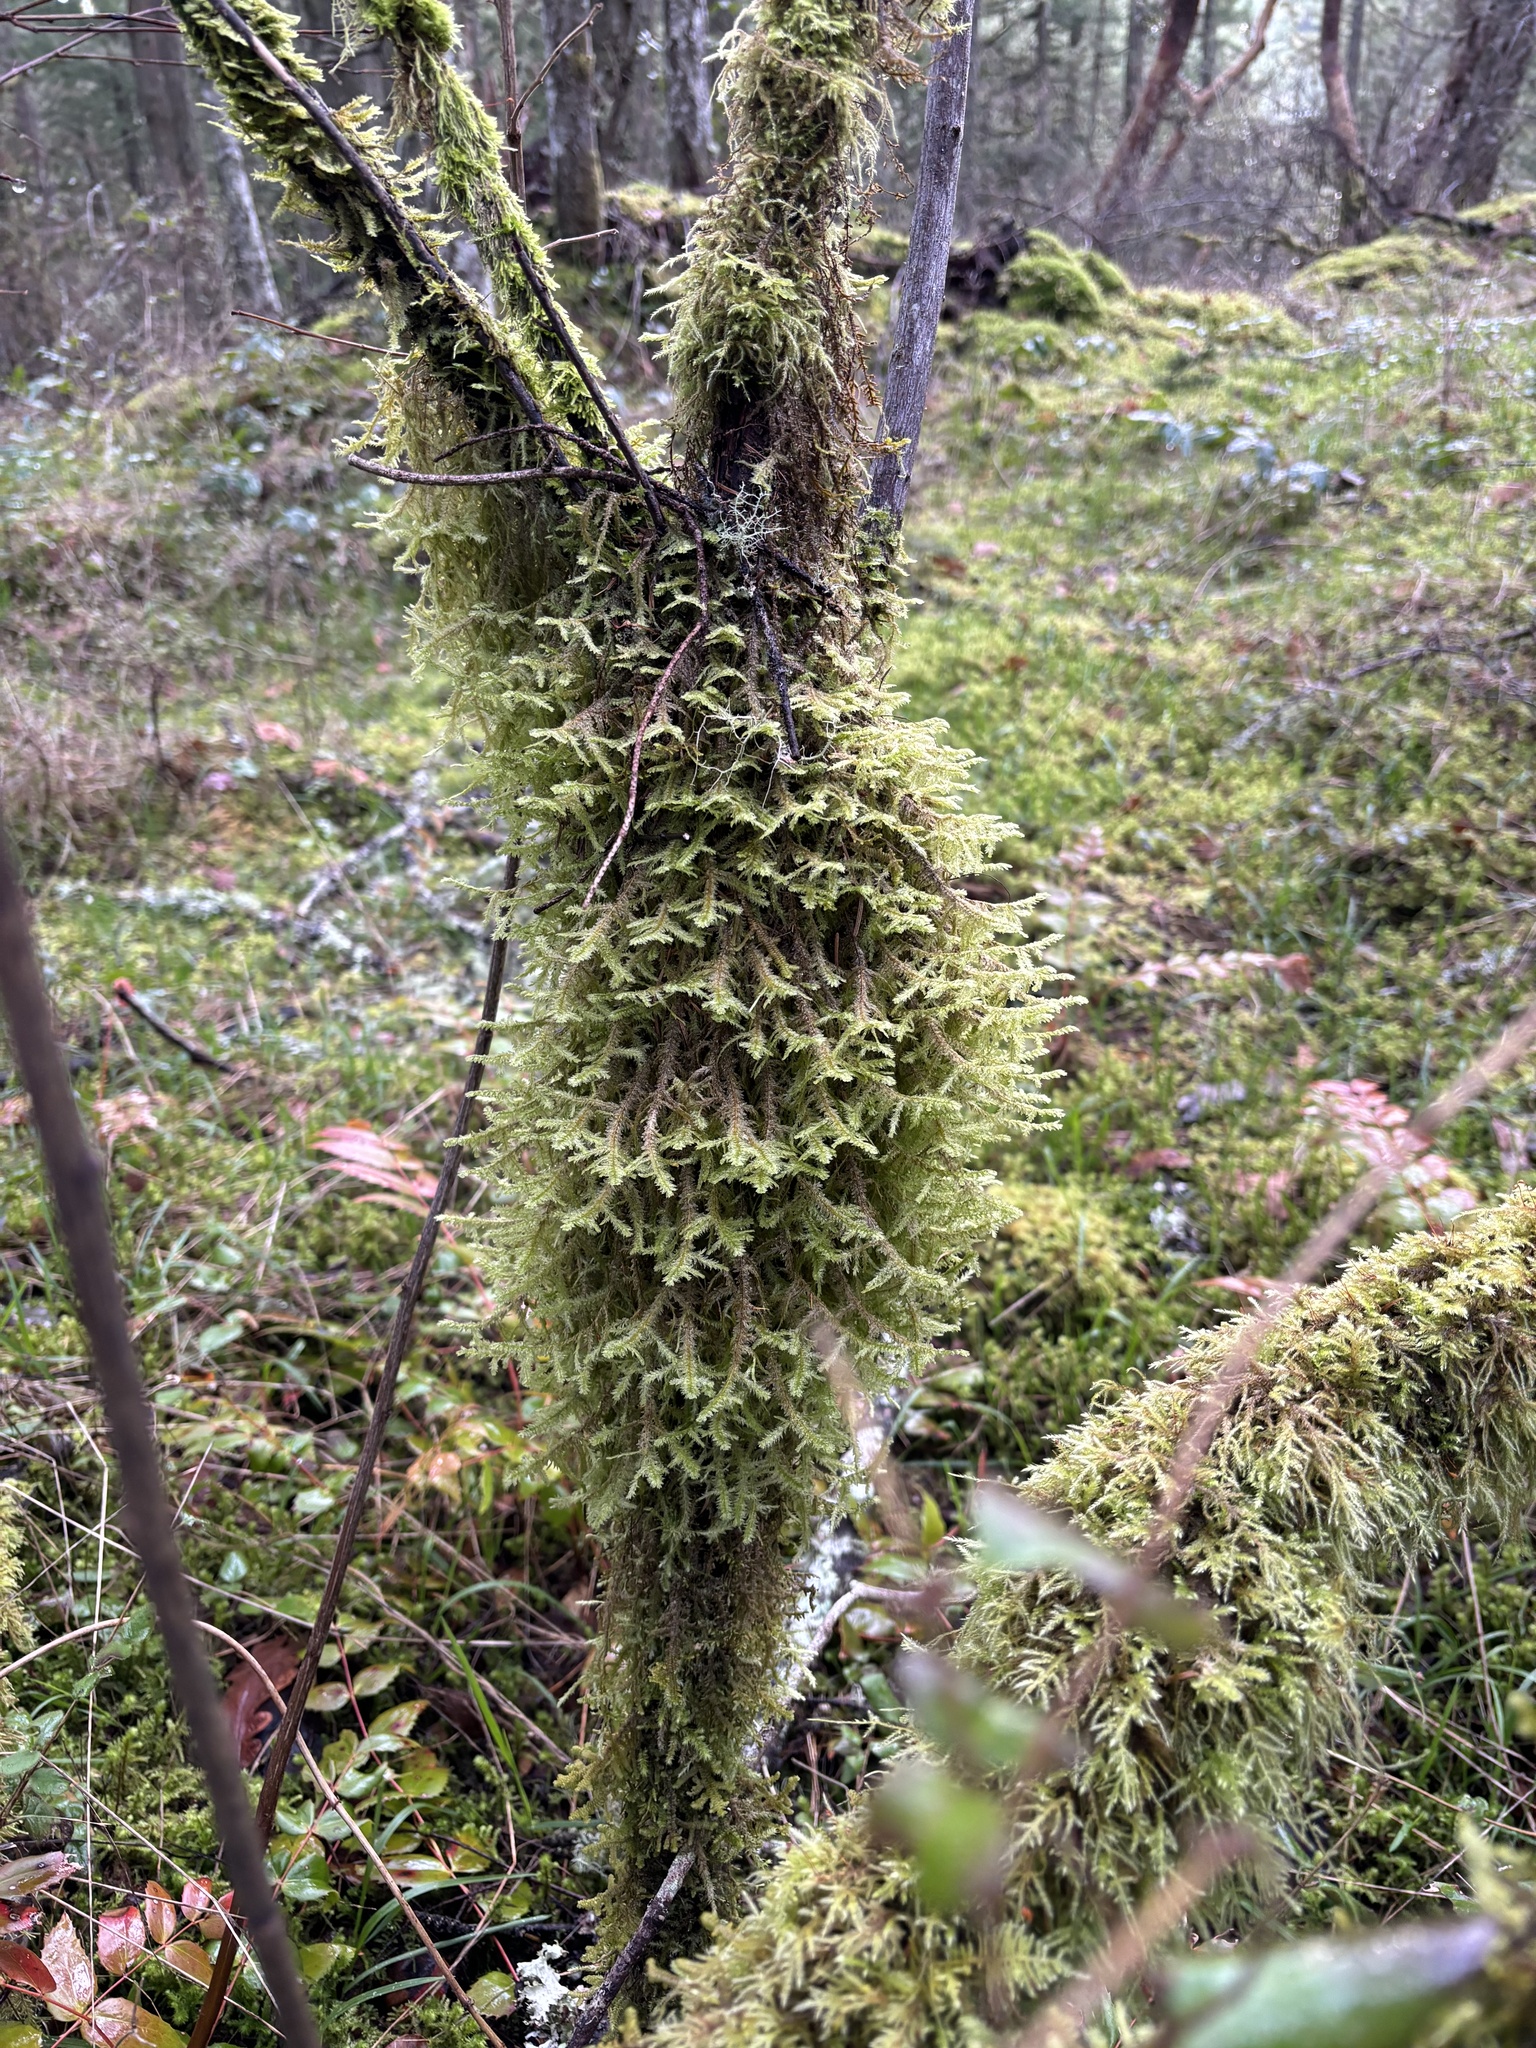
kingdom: Plantae
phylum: Bryophyta
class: Bryopsida
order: Hypnales
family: Neckeraceae
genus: Neckera
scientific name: Neckera douglasii
